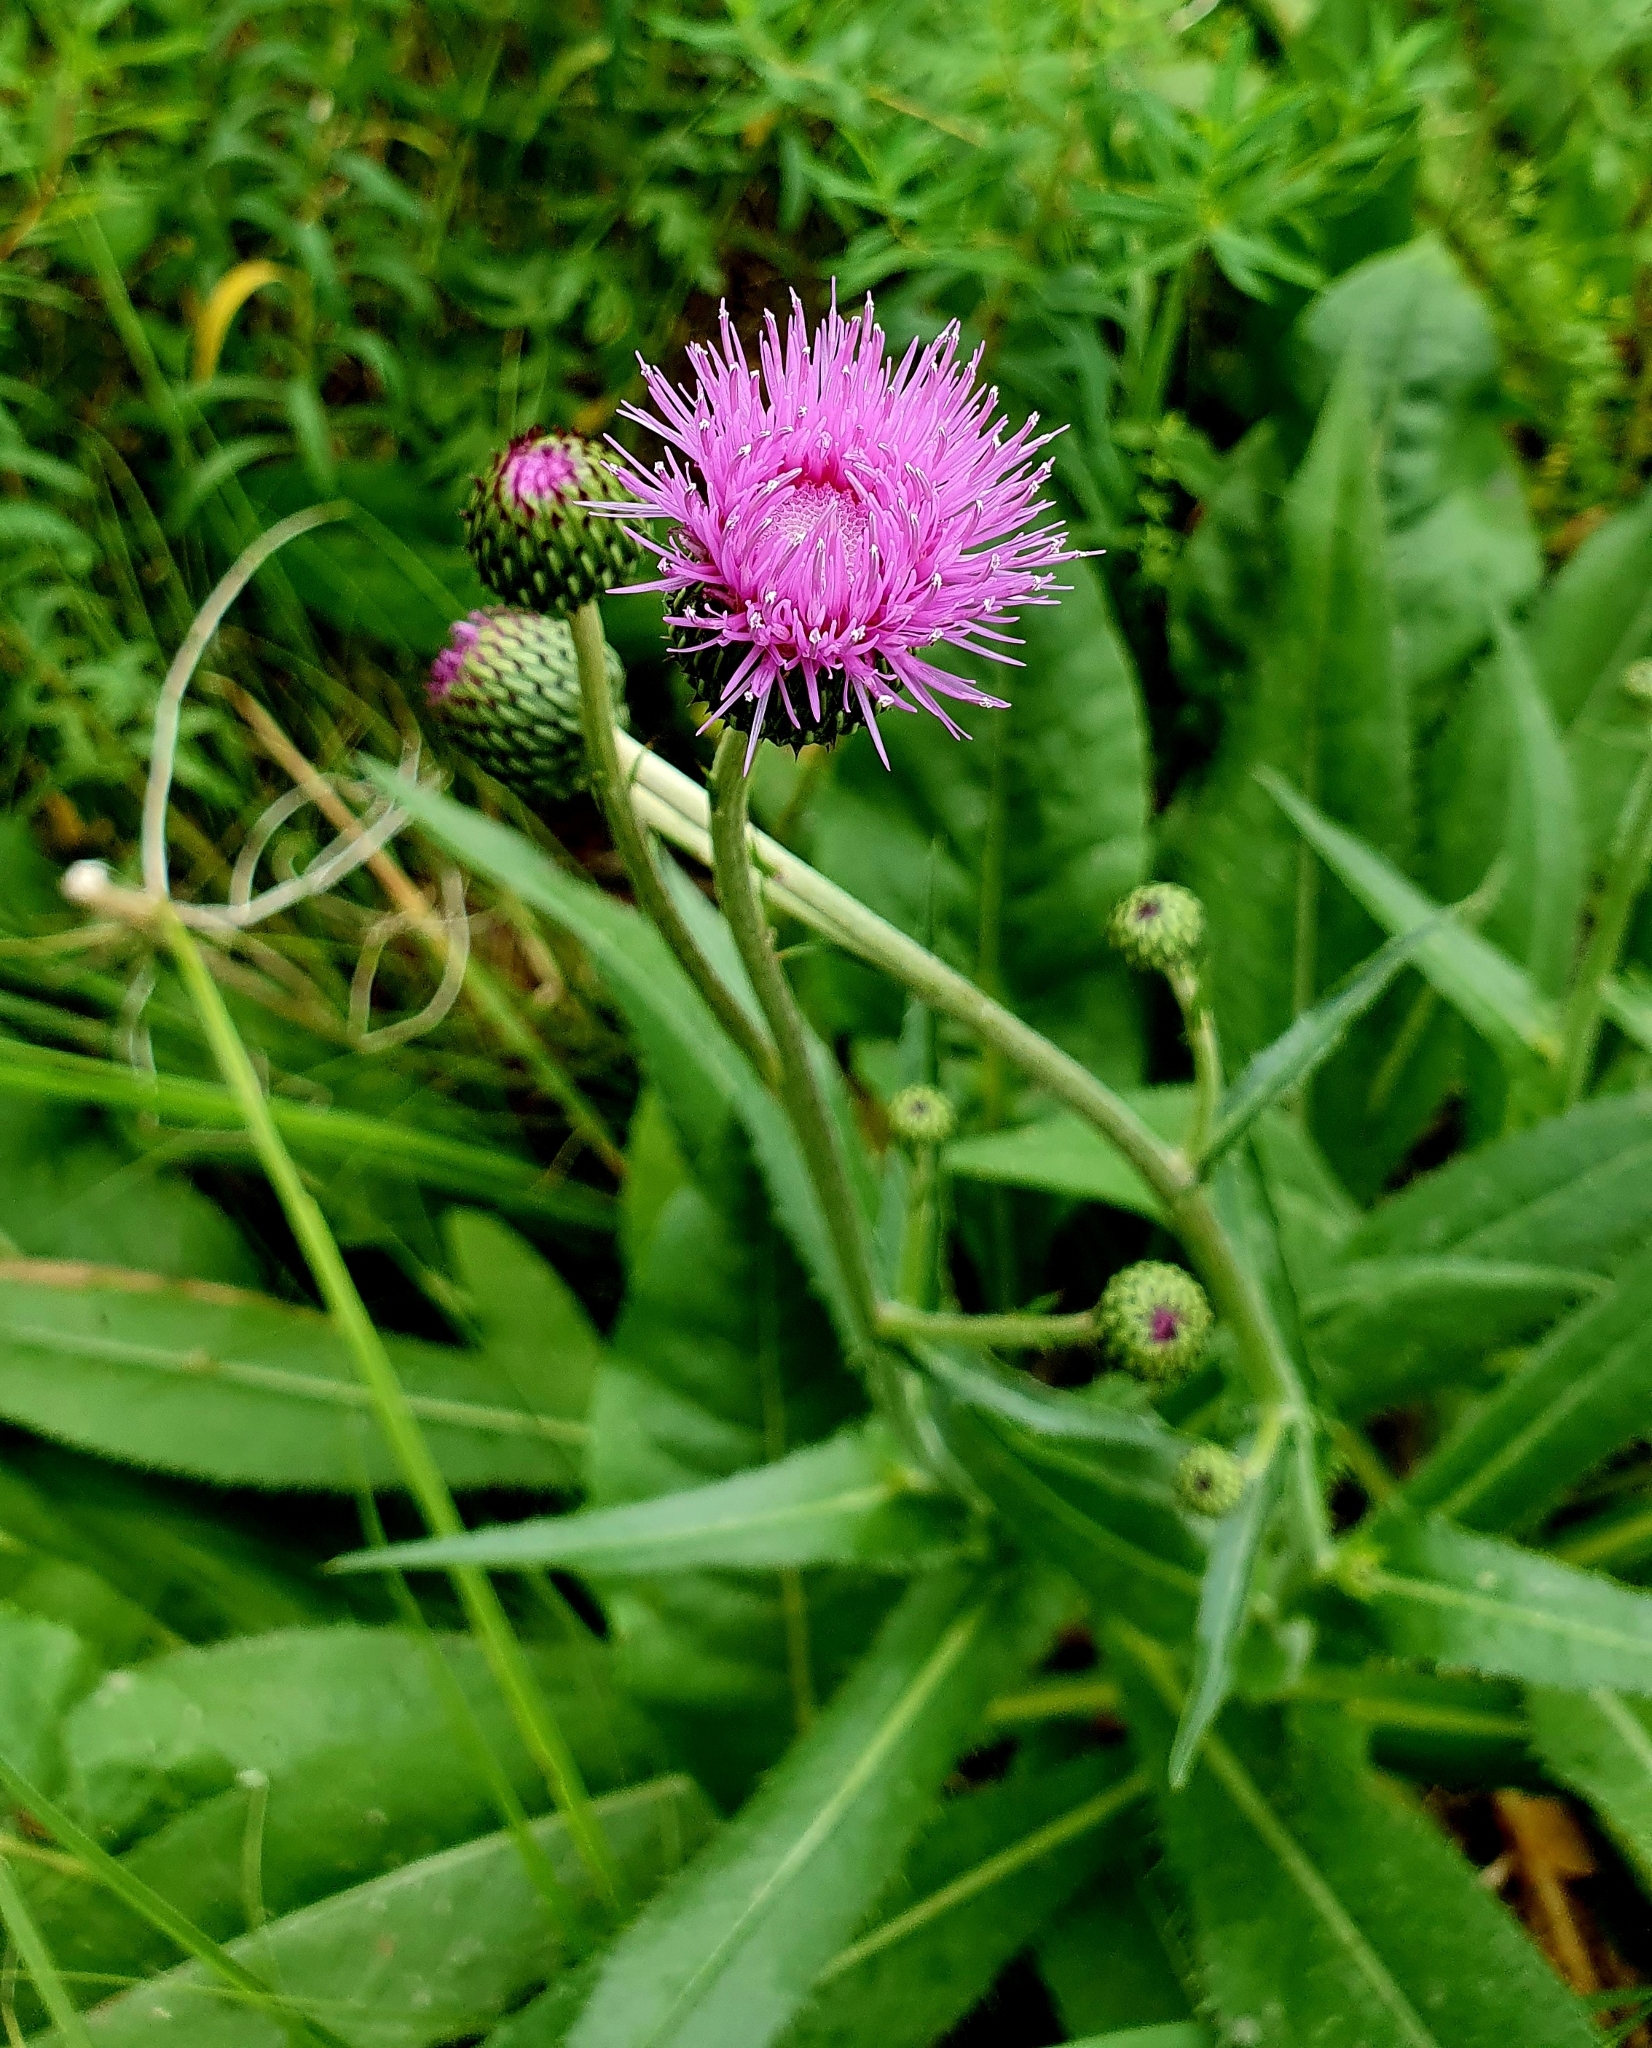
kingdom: Plantae
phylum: Tracheophyta
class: Magnoliopsida
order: Asterales
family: Asteraceae
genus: Cirsium
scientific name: Cirsium canum
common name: Queen anne's thistle
